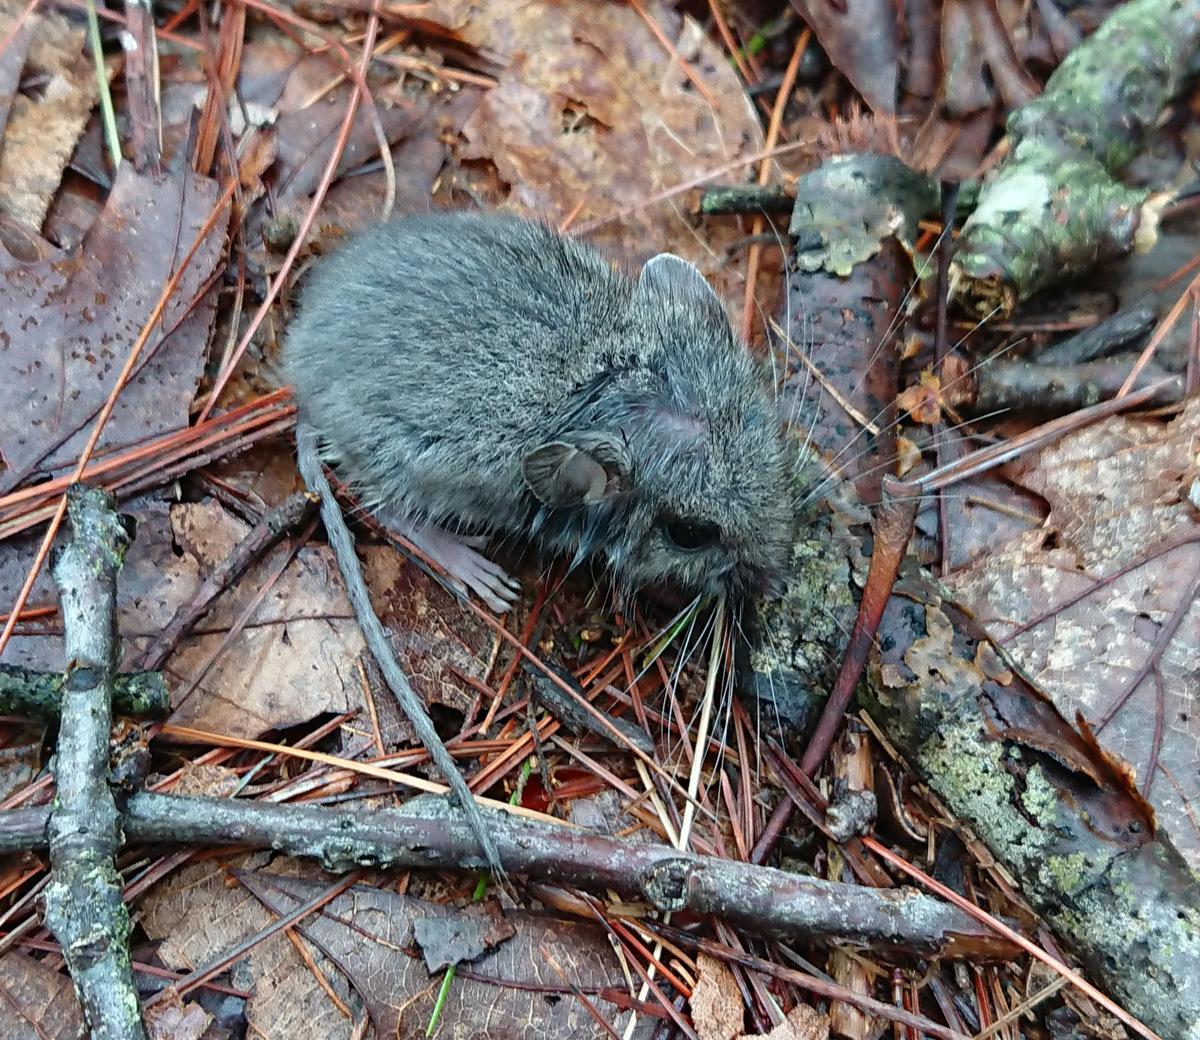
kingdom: Animalia
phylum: Chordata
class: Mammalia
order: Rodentia
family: Cricetidae
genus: Peromyscus
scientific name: Peromyscus leucopus
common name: White-footed deermouse
